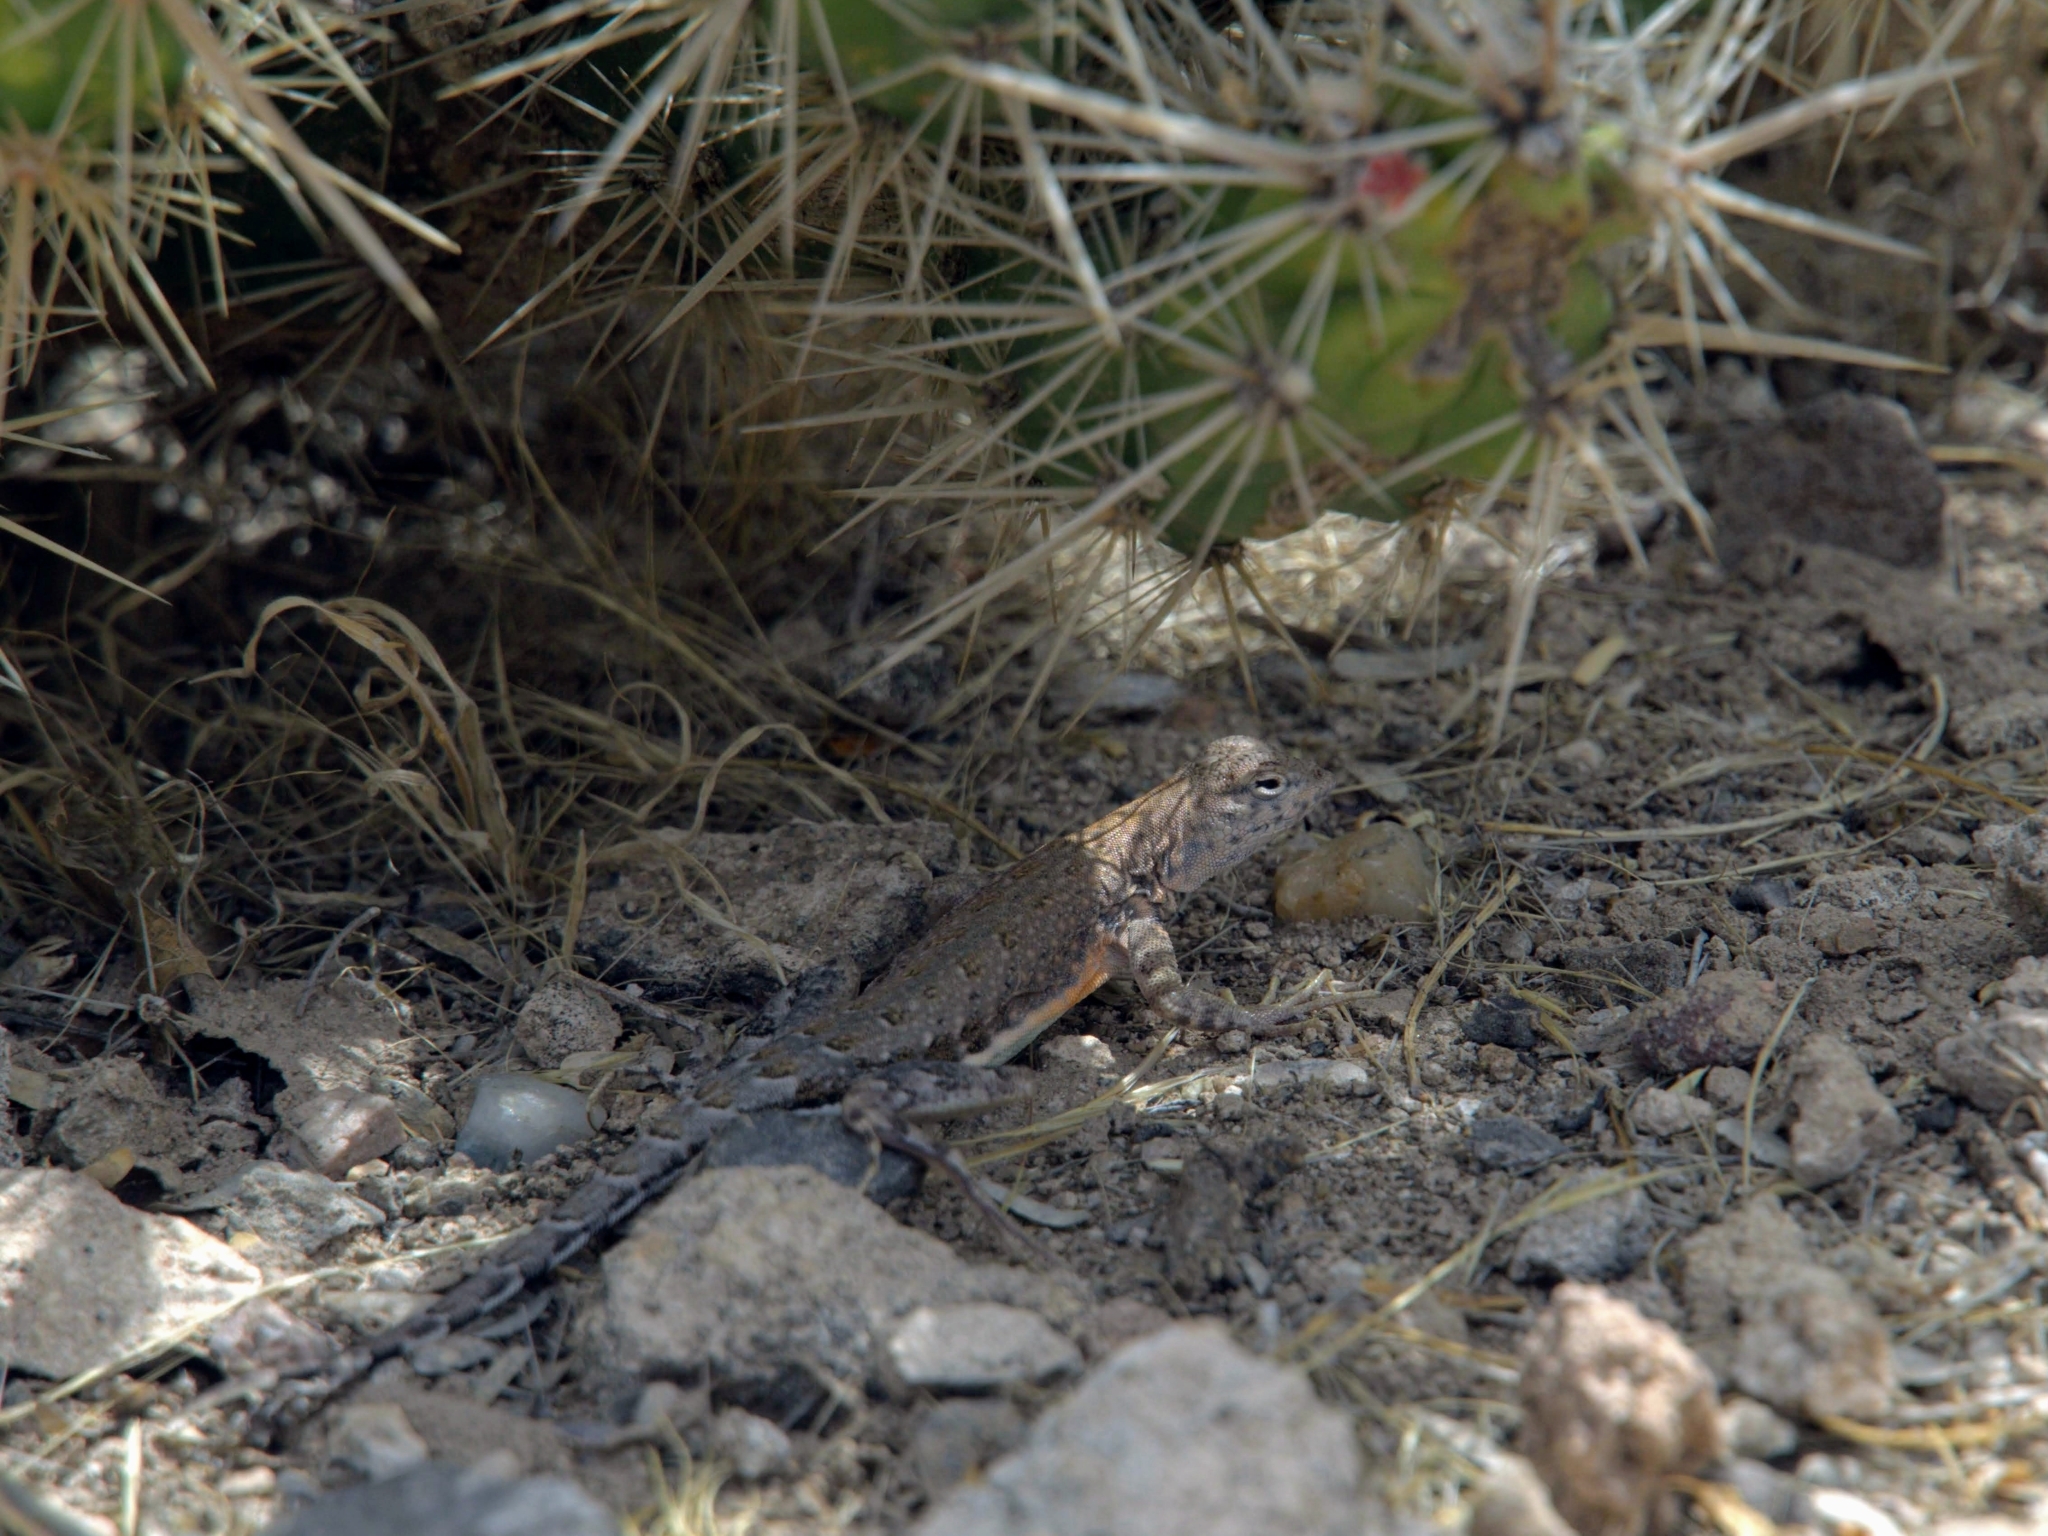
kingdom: Animalia
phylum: Chordata
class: Squamata
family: Phrynosomatidae
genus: Cophosaurus
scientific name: Cophosaurus texanus
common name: Greater earless lizard
